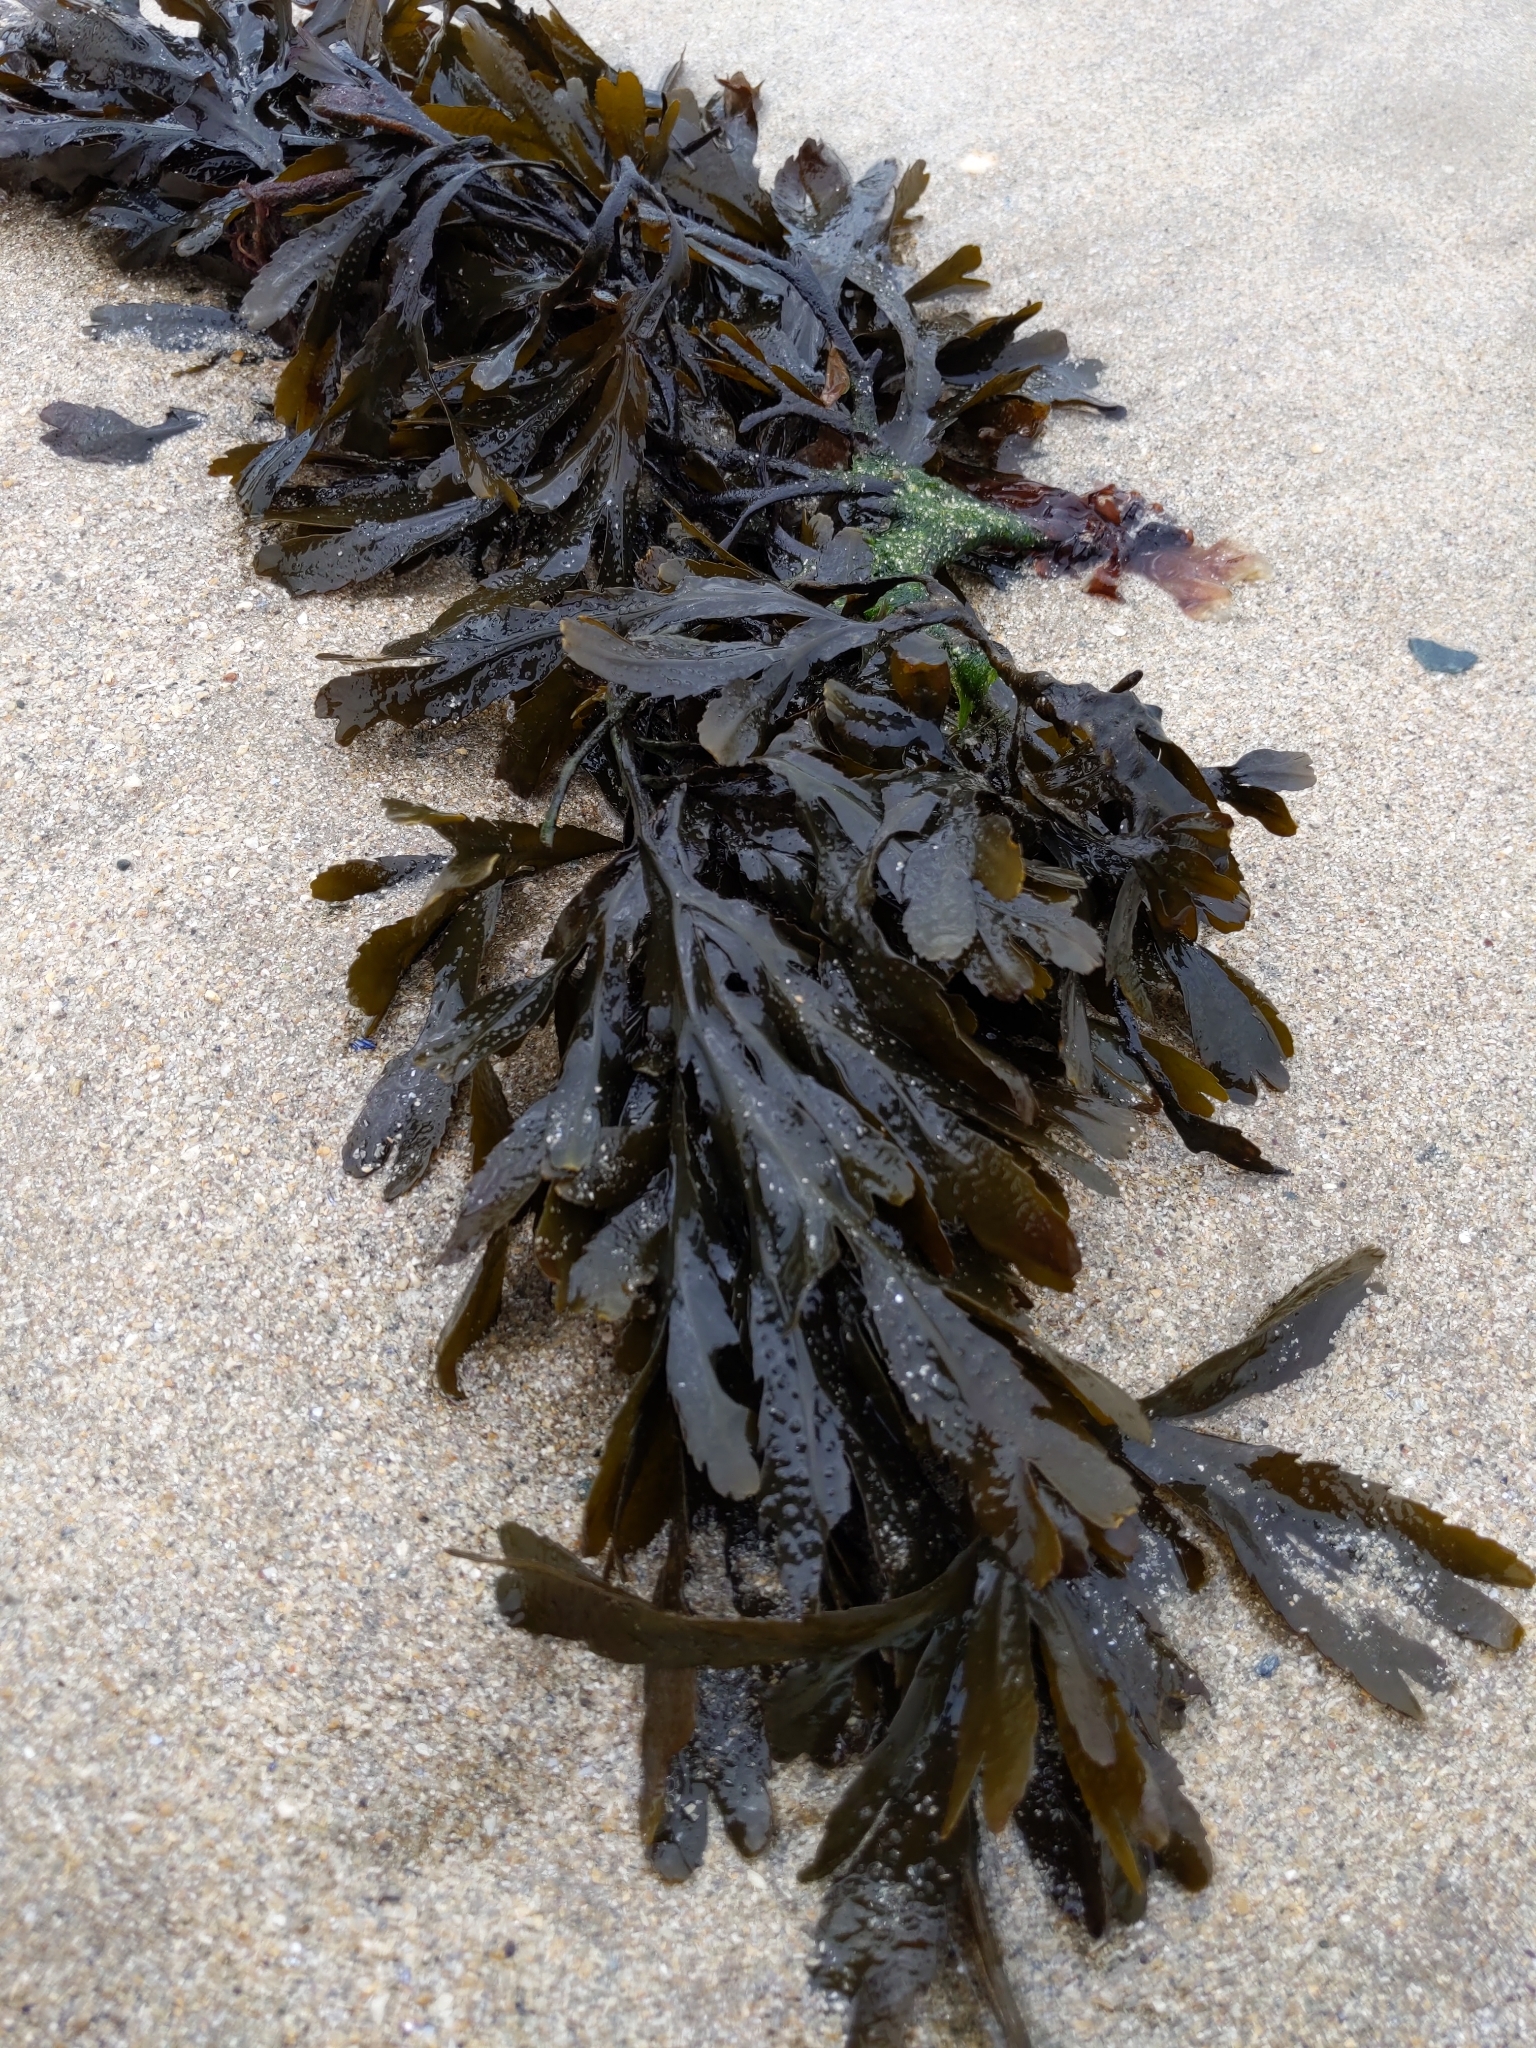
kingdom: Chromista
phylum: Ochrophyta
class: Phaeophyceae
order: Fucales
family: Fucaceae
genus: Fucus
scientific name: Fucus serratus
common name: Toothed wrack
